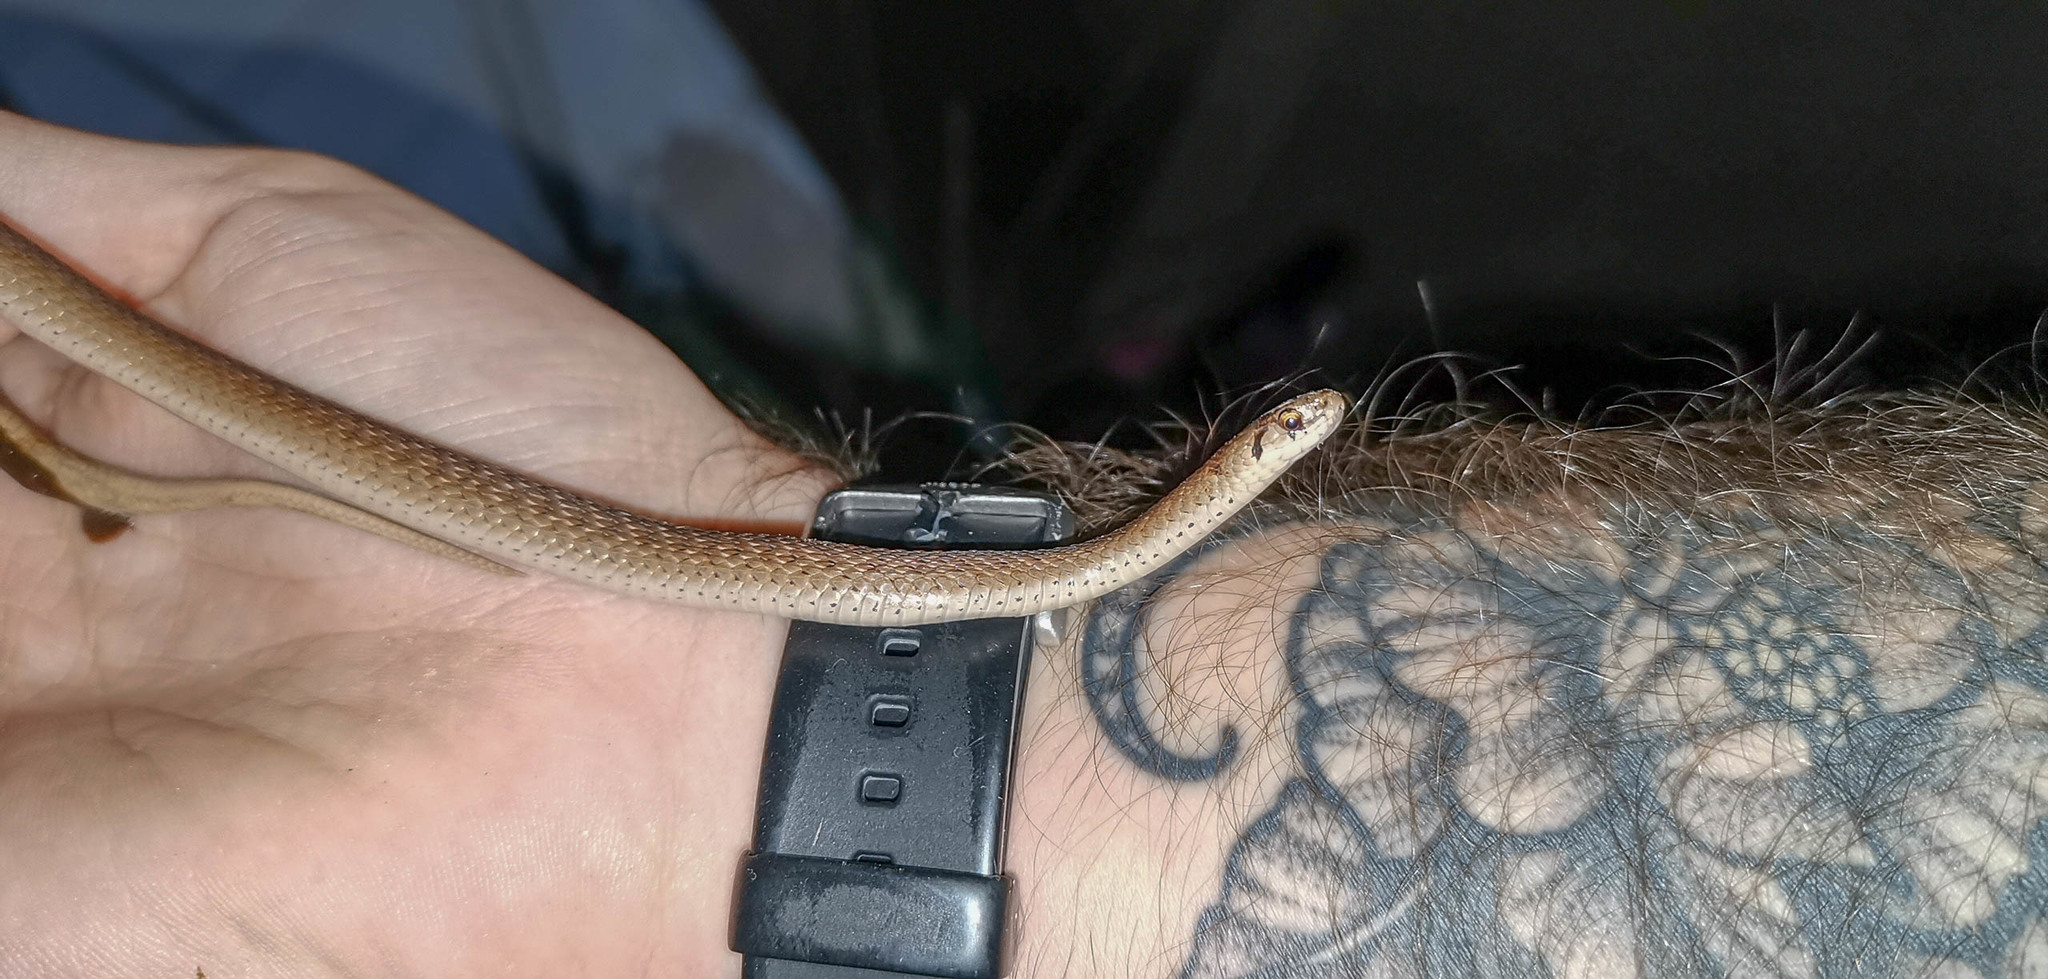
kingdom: Animalia
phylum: Chordata
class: Squamata
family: Colubridae
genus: Storeria
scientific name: Storeria dekayi
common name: (dekay’s) brown snake
